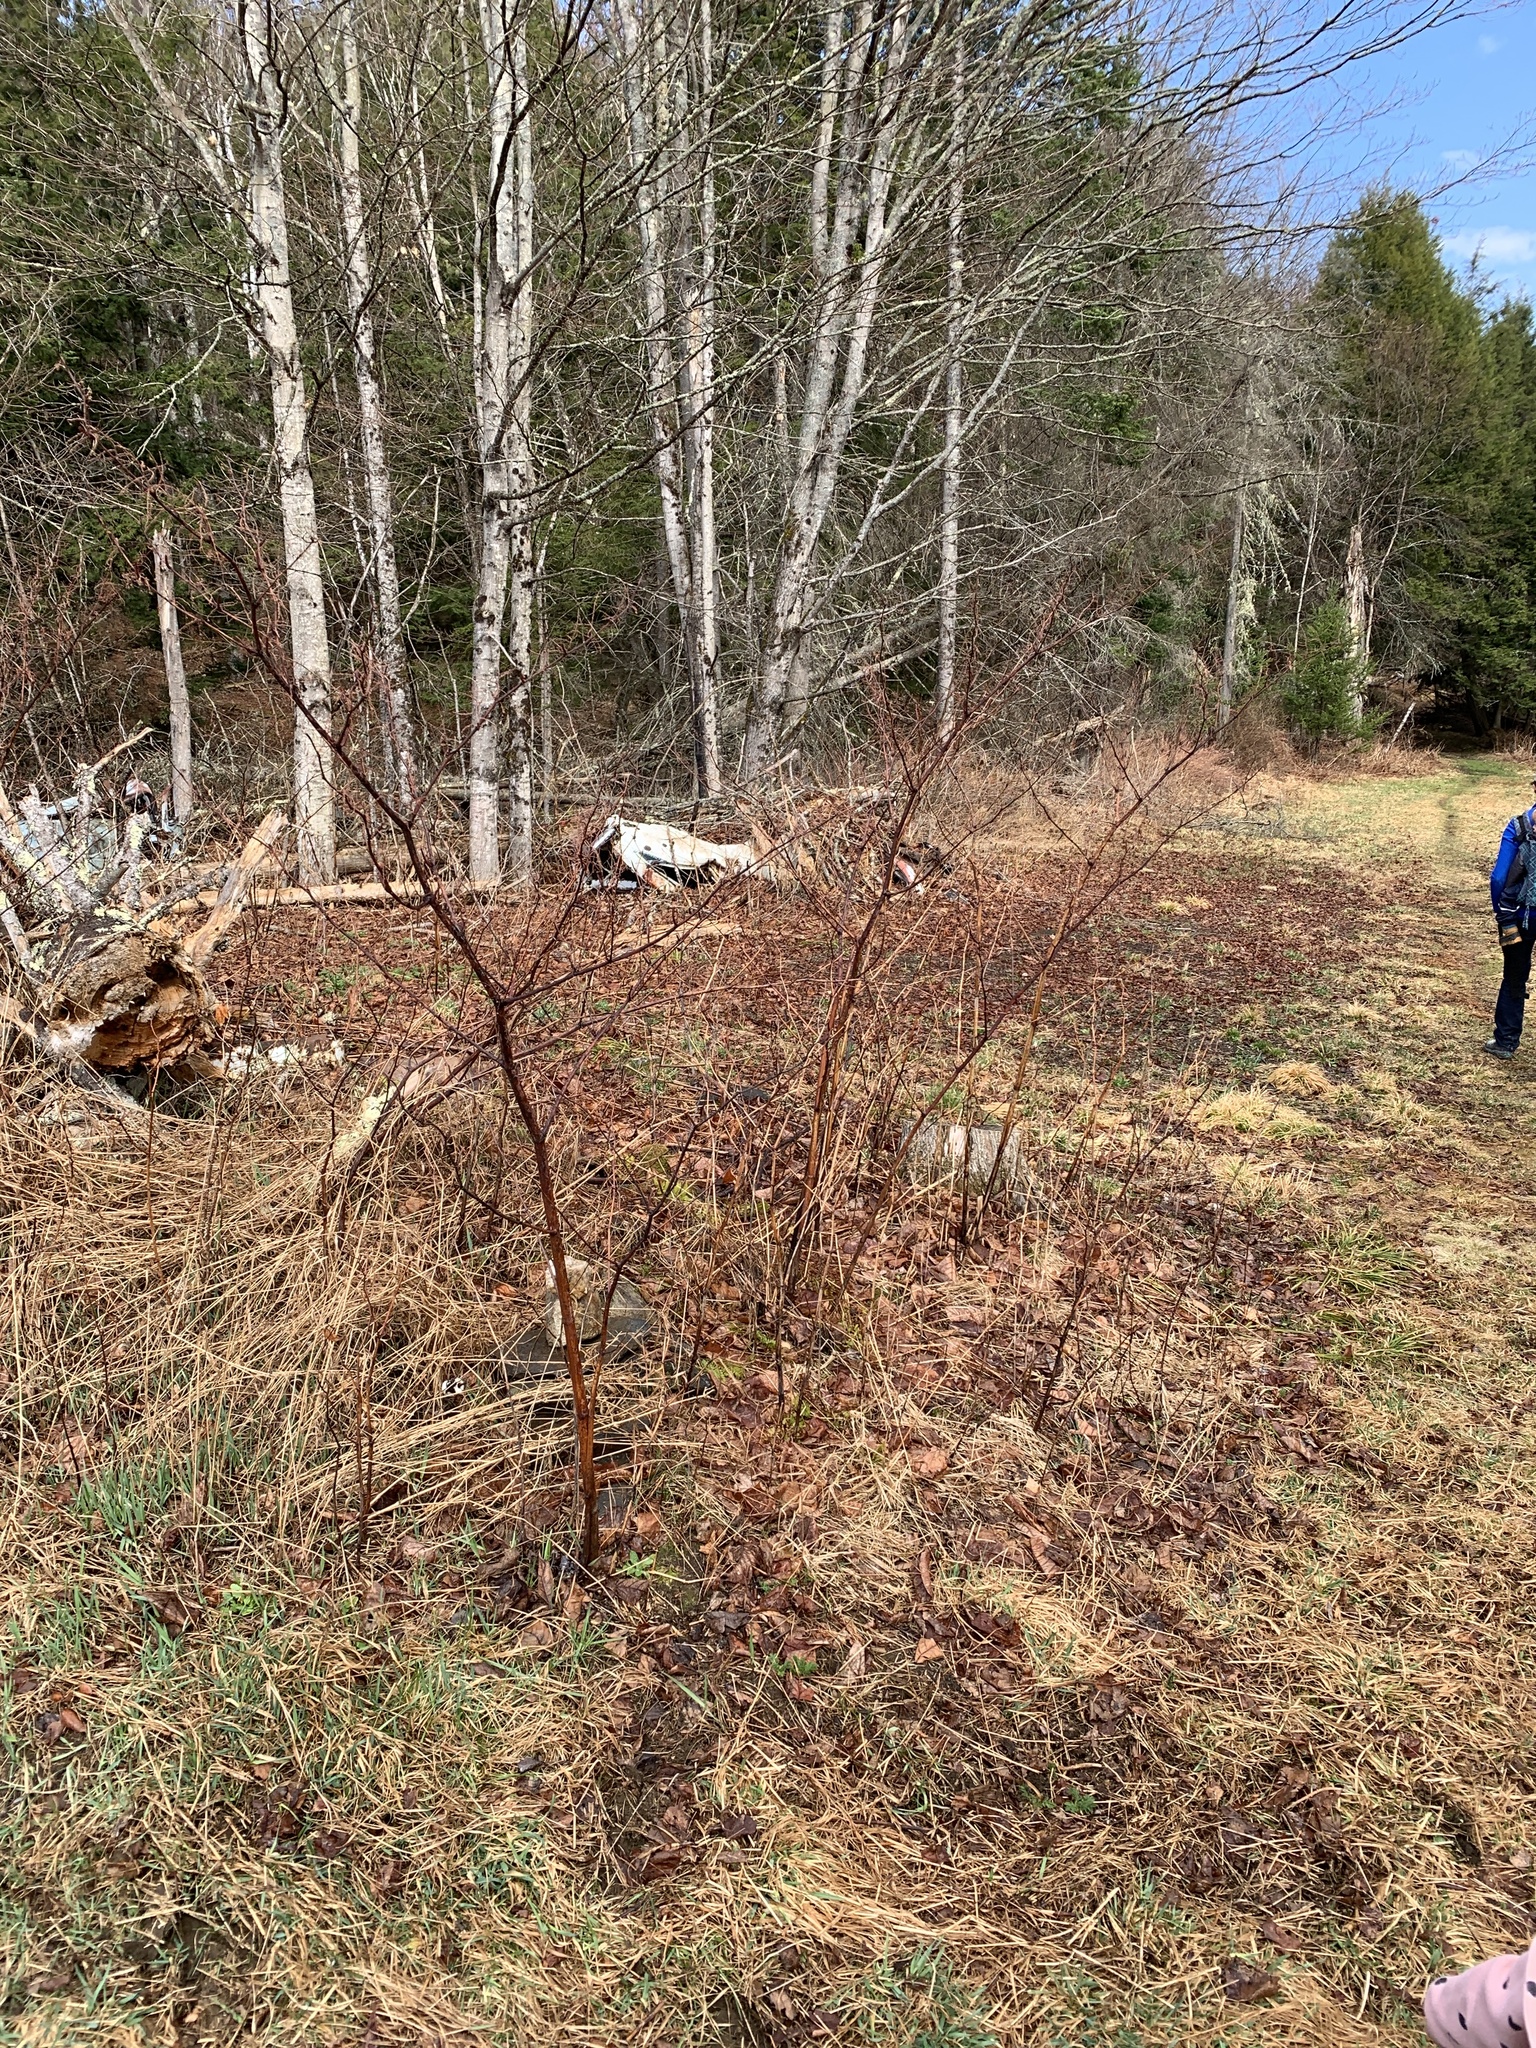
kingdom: Plantae
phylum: Tracheophyta
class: Magnoliopsida
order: Caryophyllales
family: Polygonaceae
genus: Reynoutria
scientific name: Reynoutria japonica
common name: Japanese knotweed
